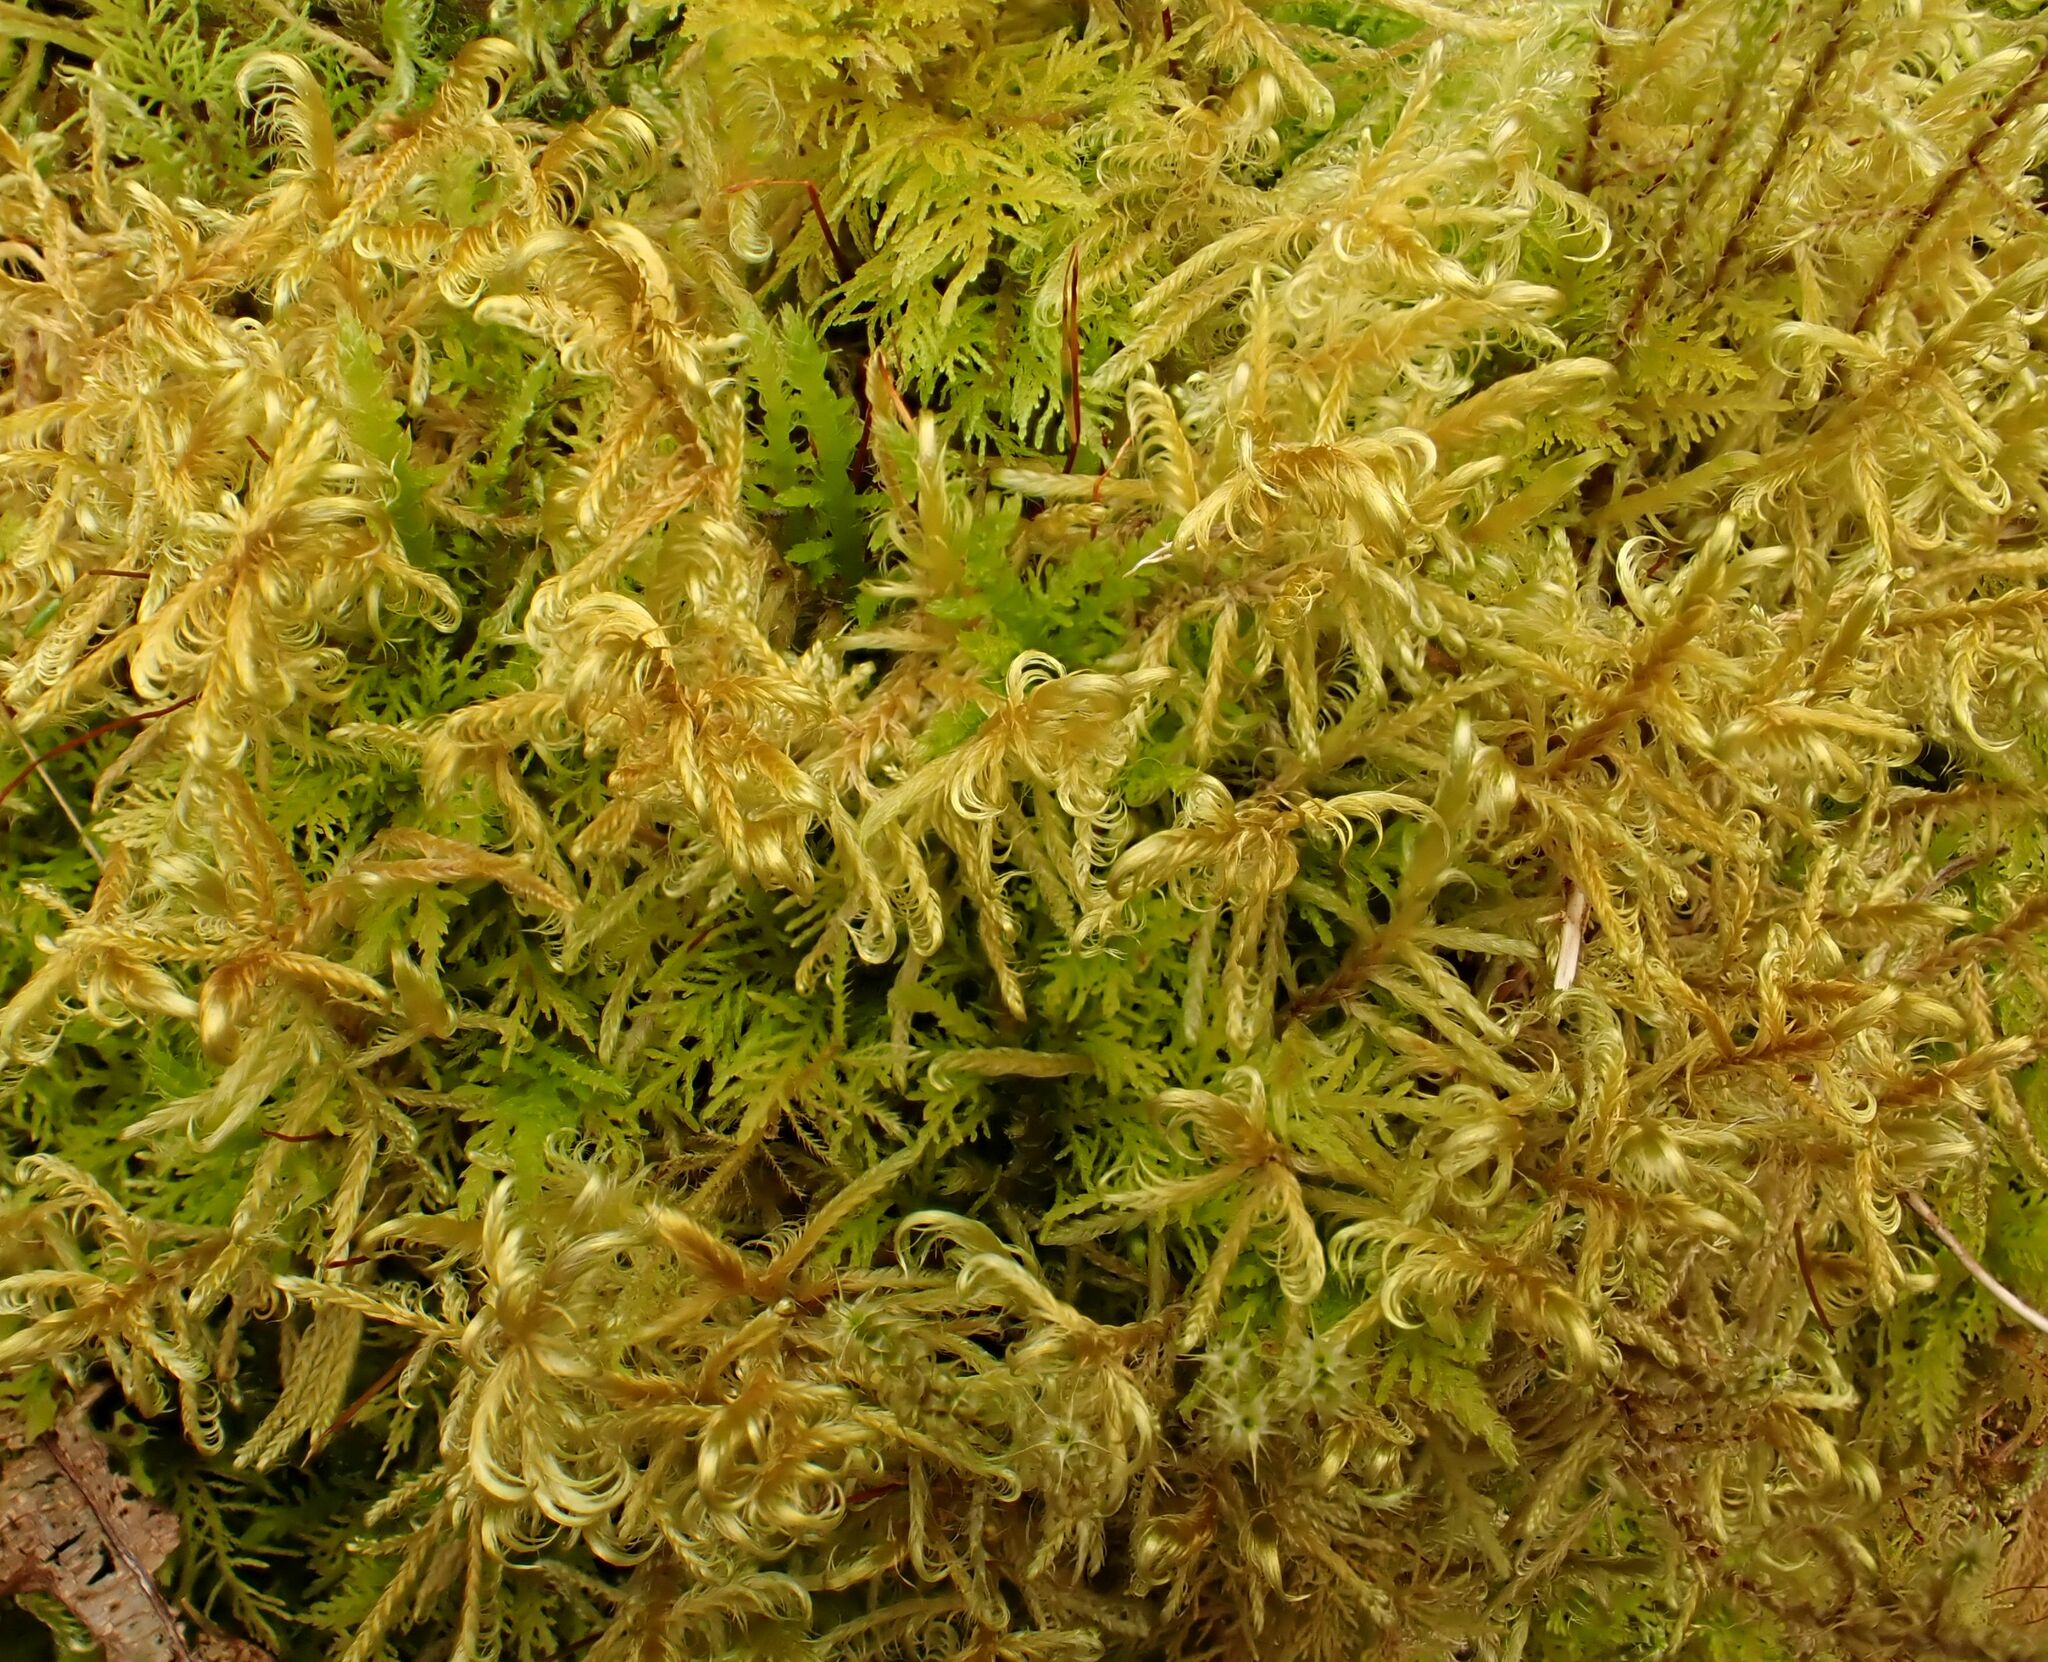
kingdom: Plantae
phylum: Bryophyta
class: Bryopsida
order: Hypnales
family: Scorpidiaceae
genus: Sanionia
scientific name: Sanionia uncinata
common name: Sickle moss
